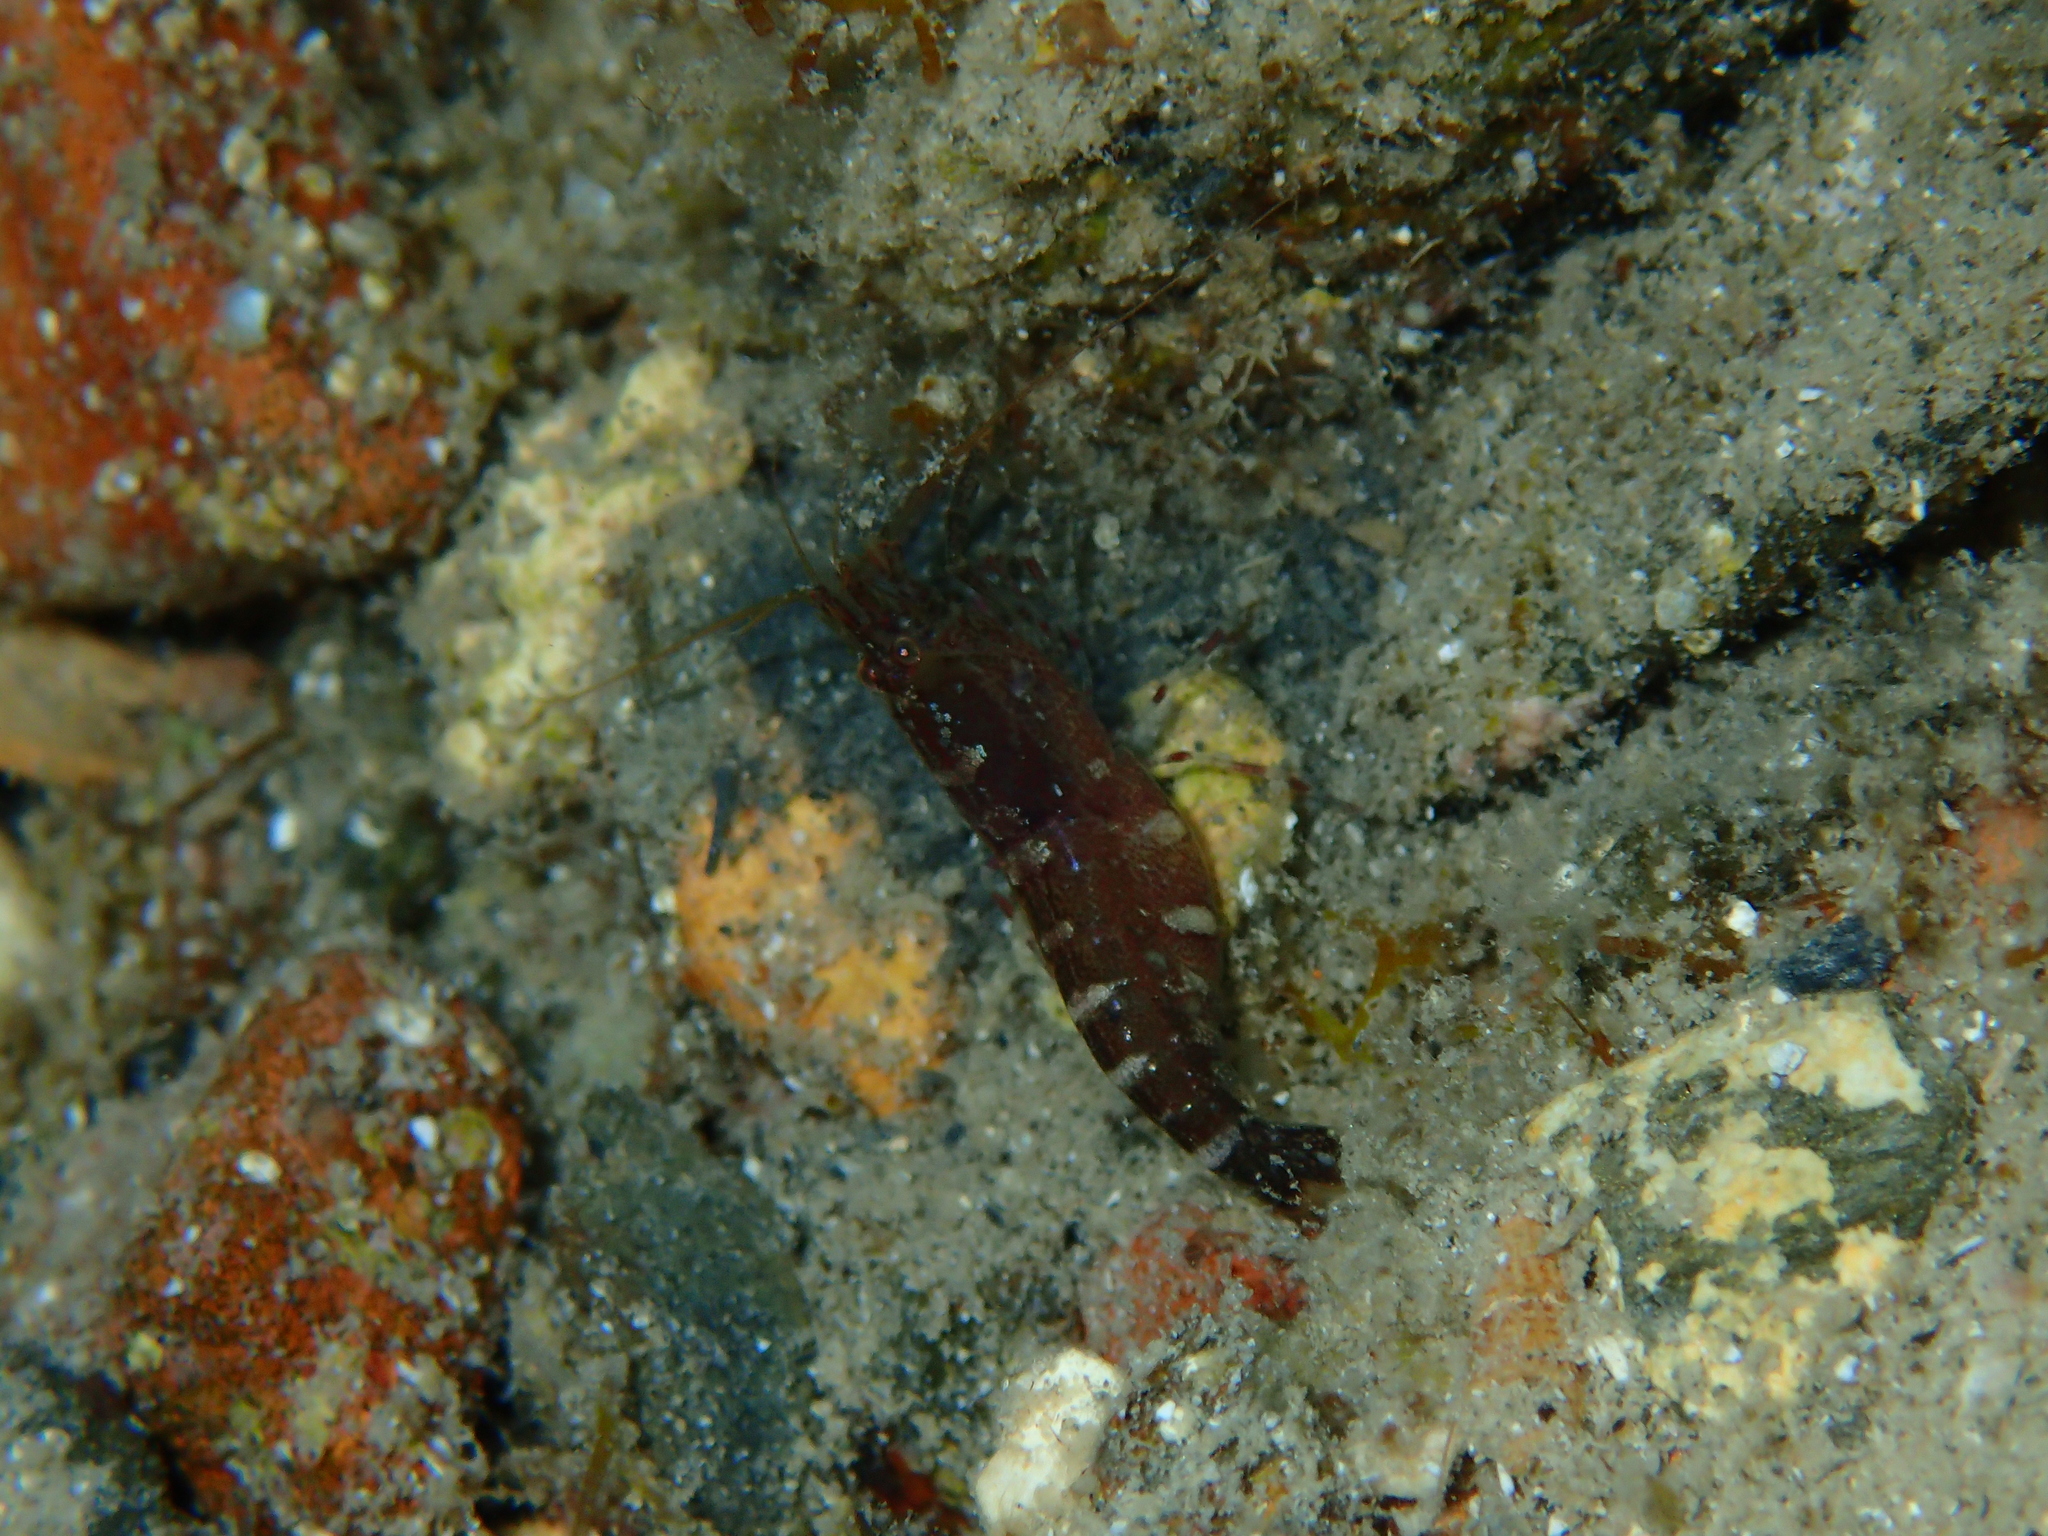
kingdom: Animalia
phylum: Arthropoda
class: Malacostraca
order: Decapoda
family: Alpheidae
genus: Athanas
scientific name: Athanas nitescens
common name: Hooded shrimp
